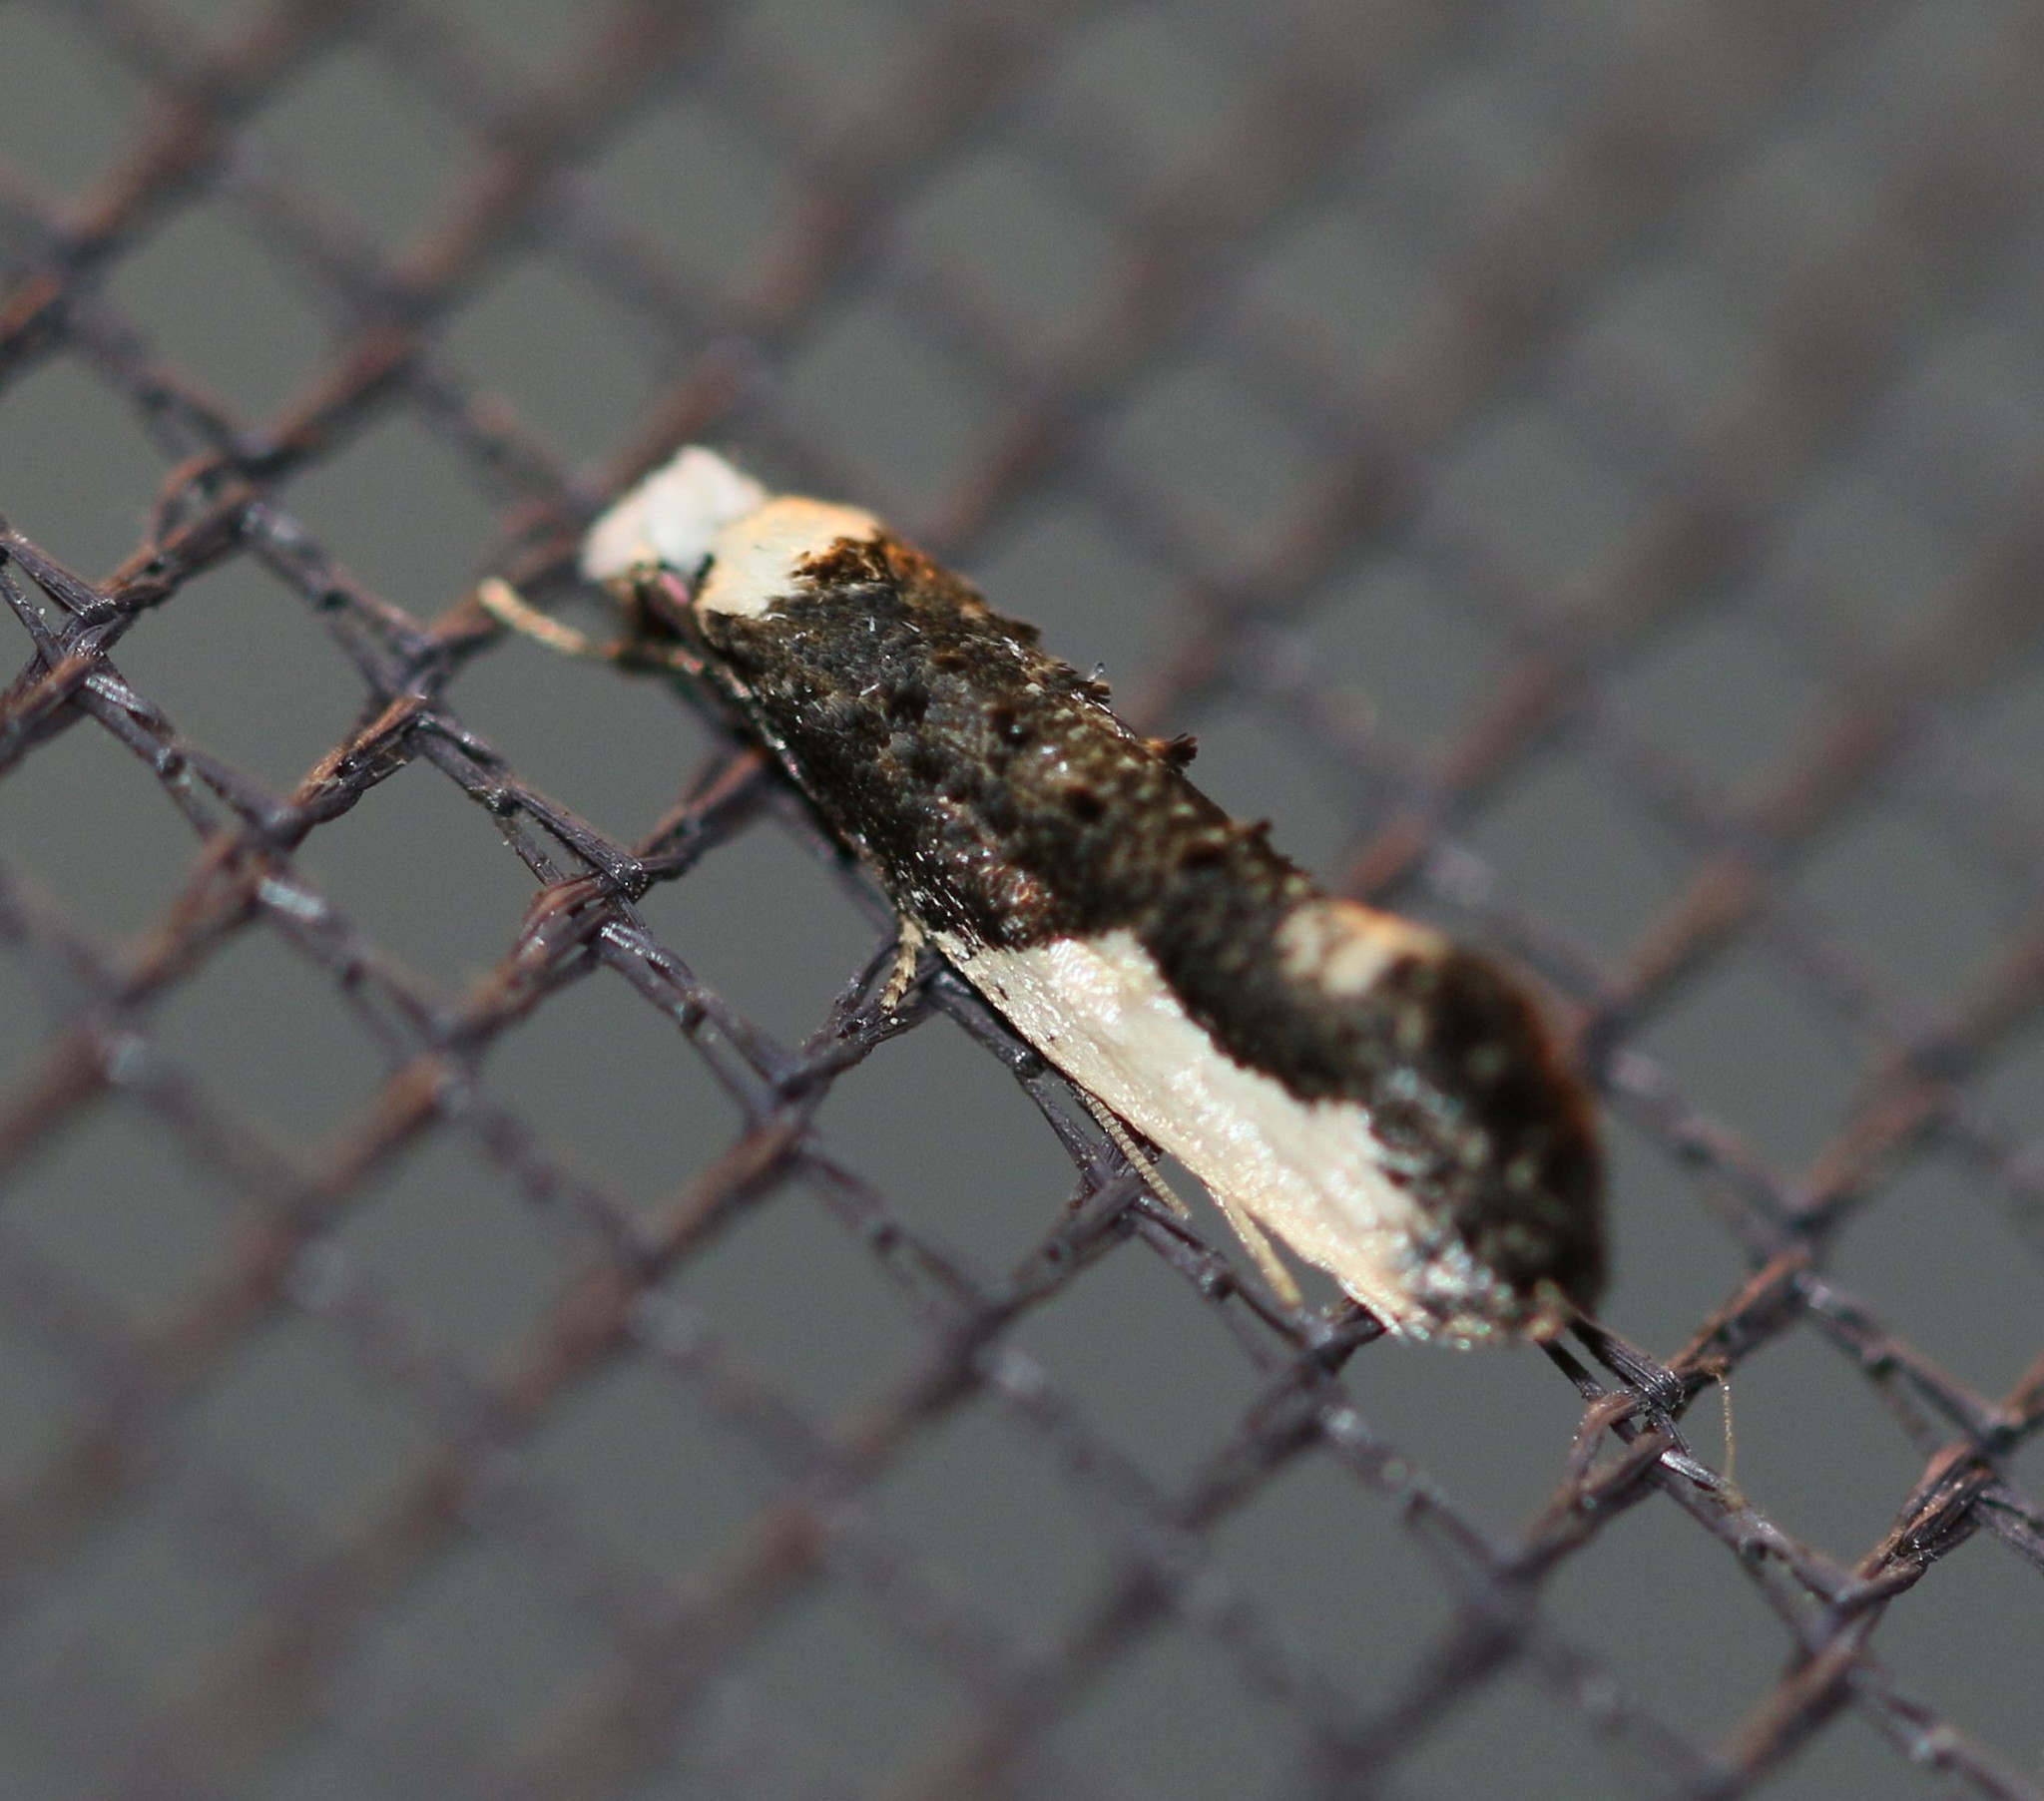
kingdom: Animalia
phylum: Arthropoda
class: Insecta
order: Lepidoptera
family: Tineidae
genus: Monopis
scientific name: Monopis monachella
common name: Moth
